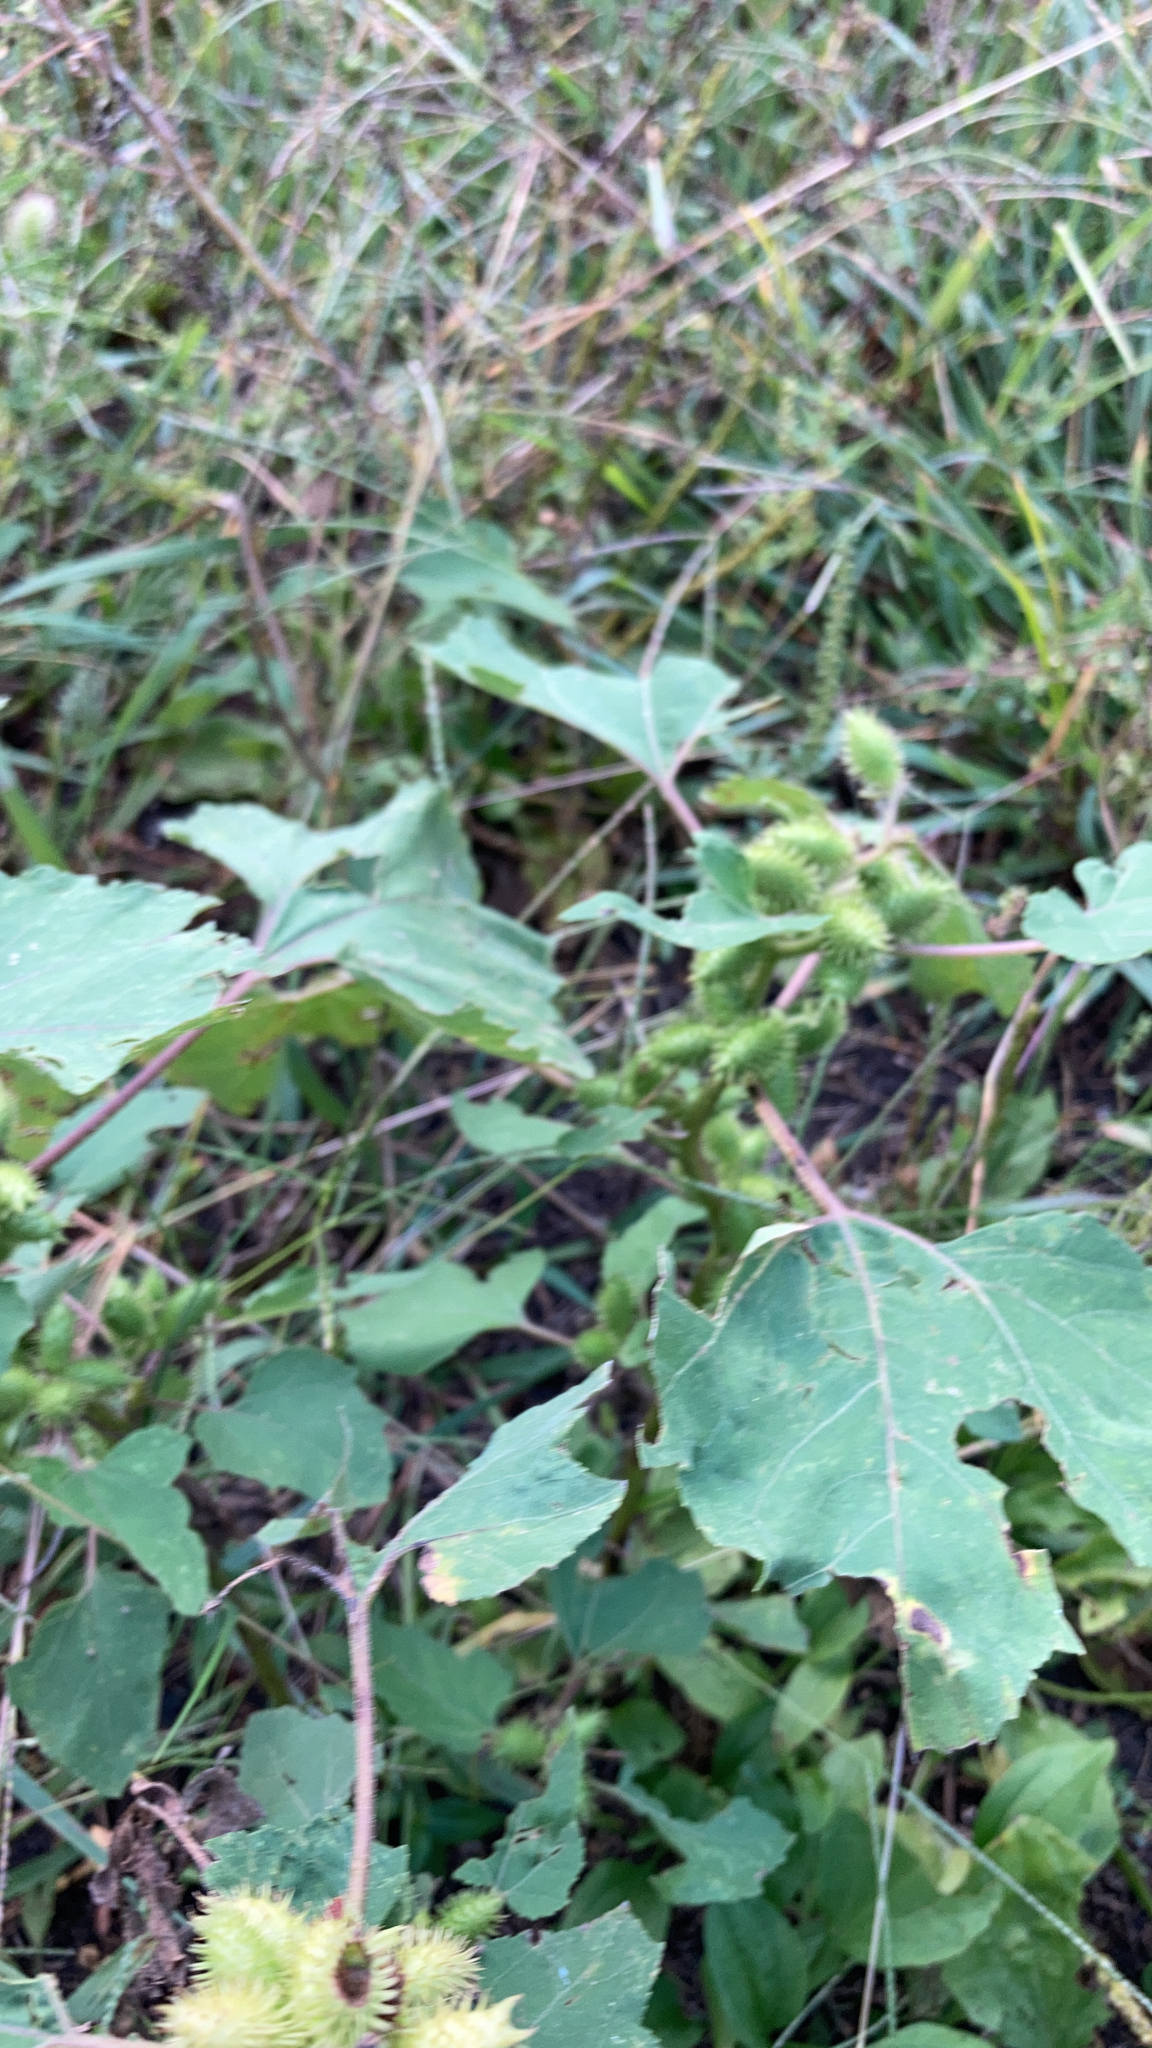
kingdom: Plantae
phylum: Tracheophyta
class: Magnoliopsida
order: Asterales
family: Asteraceae
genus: Xanthium
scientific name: Xanthium strumarium
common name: Rough cocklebur
